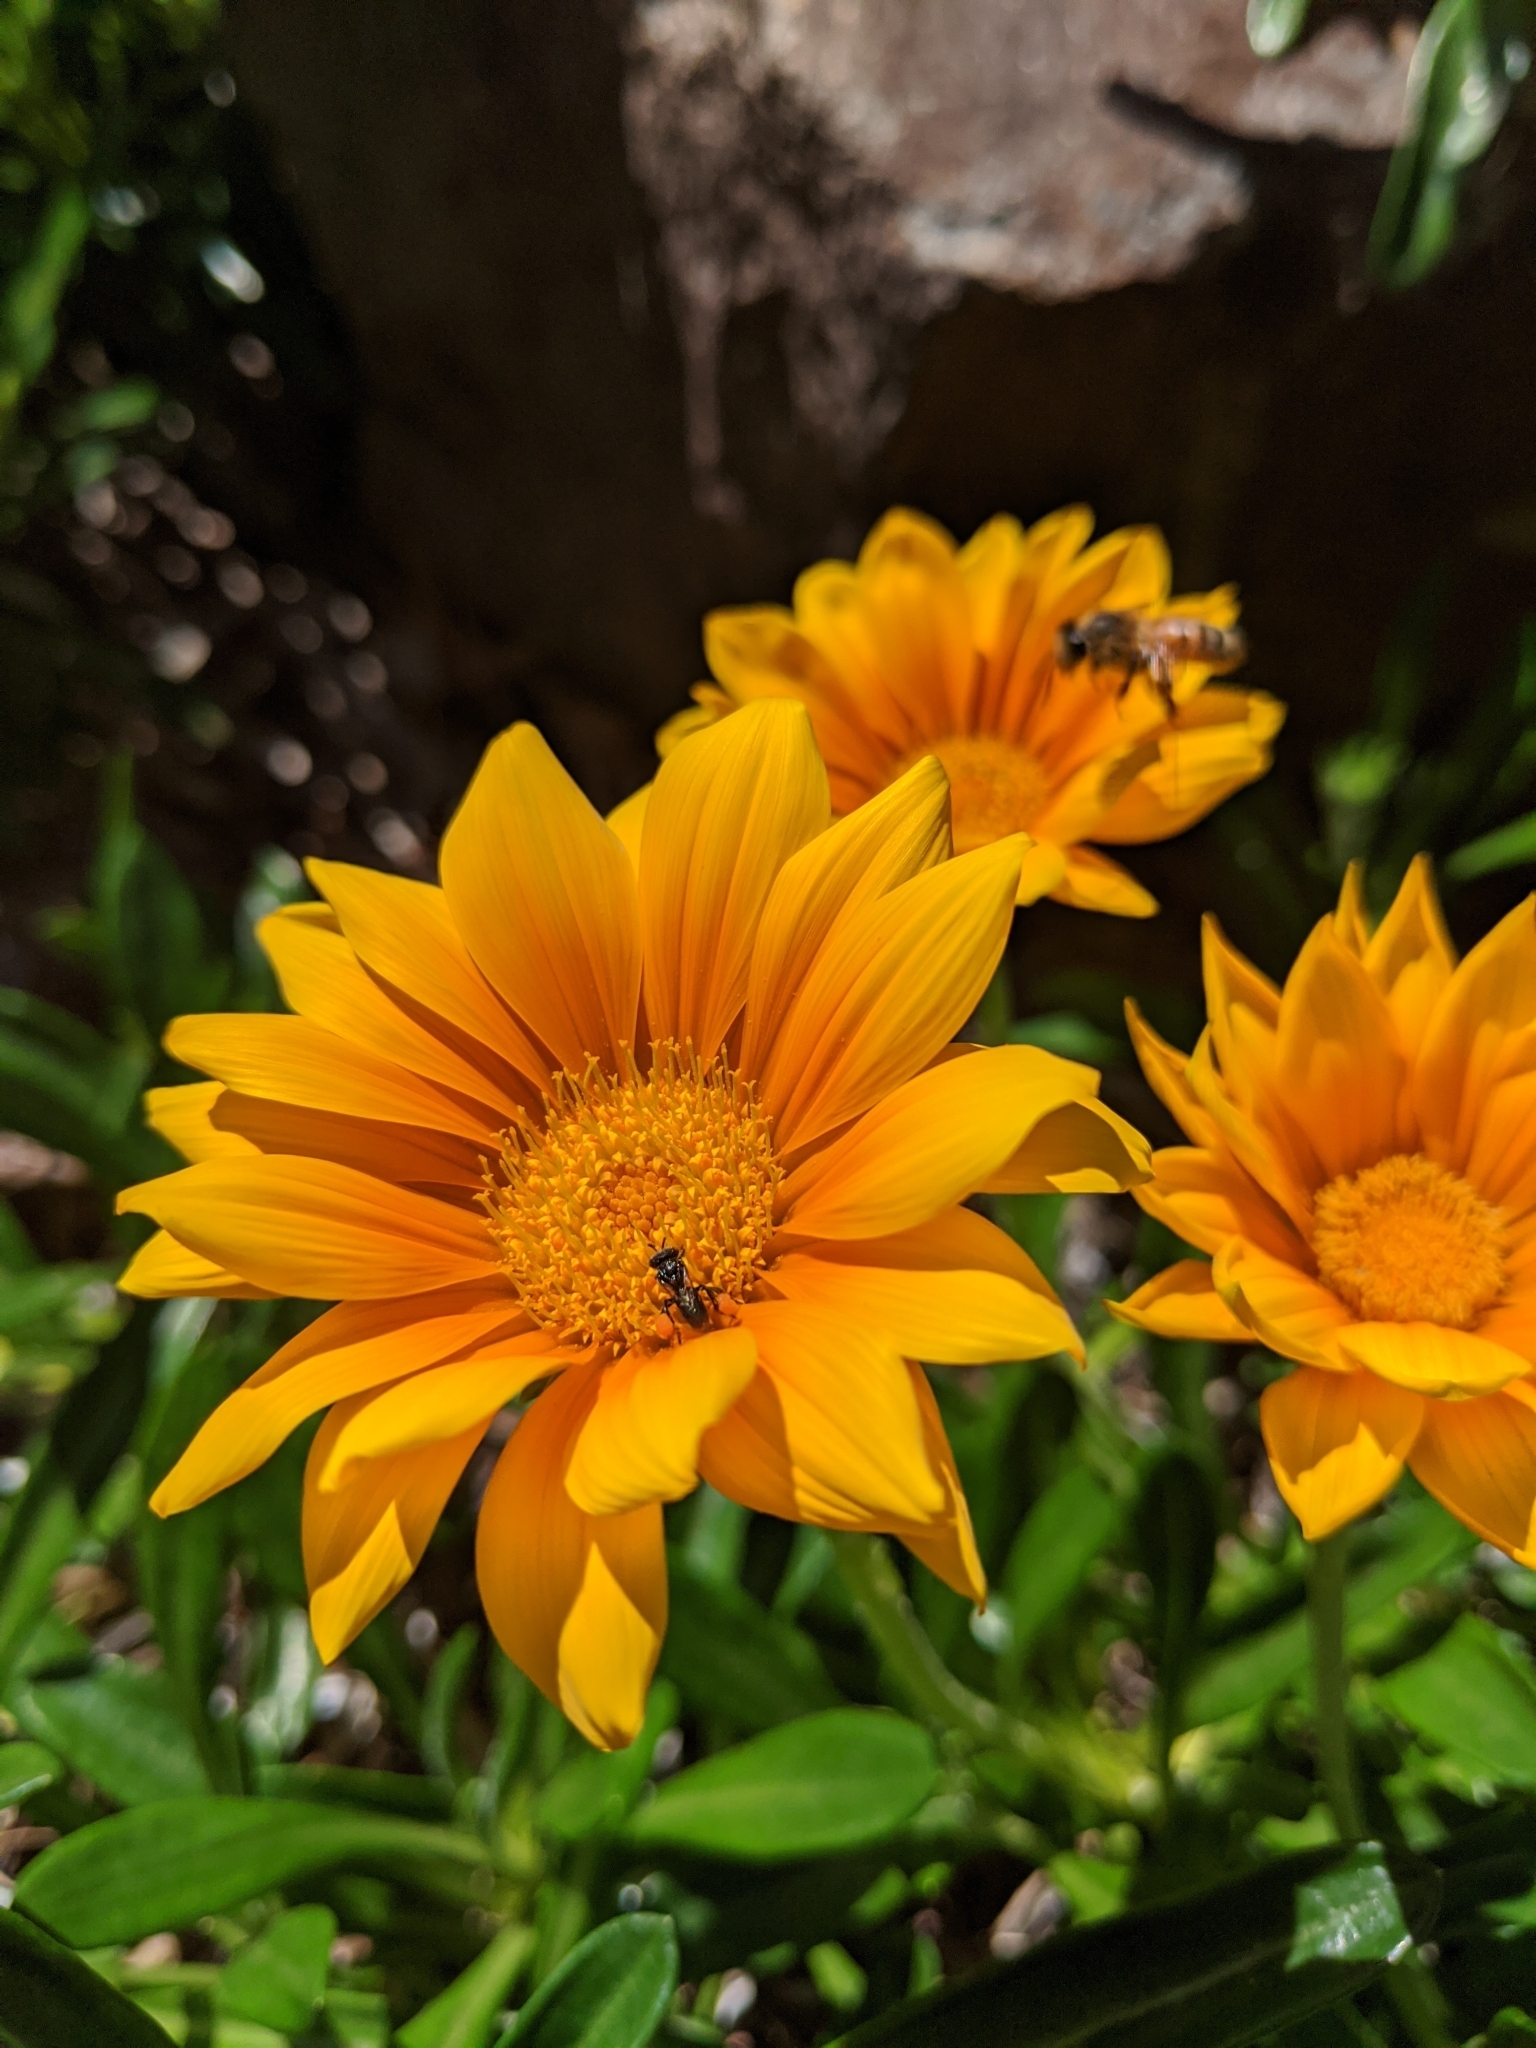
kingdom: Animalia
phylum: Arthropoda
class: Insecta
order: Hymenoptera
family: Apidae
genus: Tetragonula
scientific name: Tetragonula
